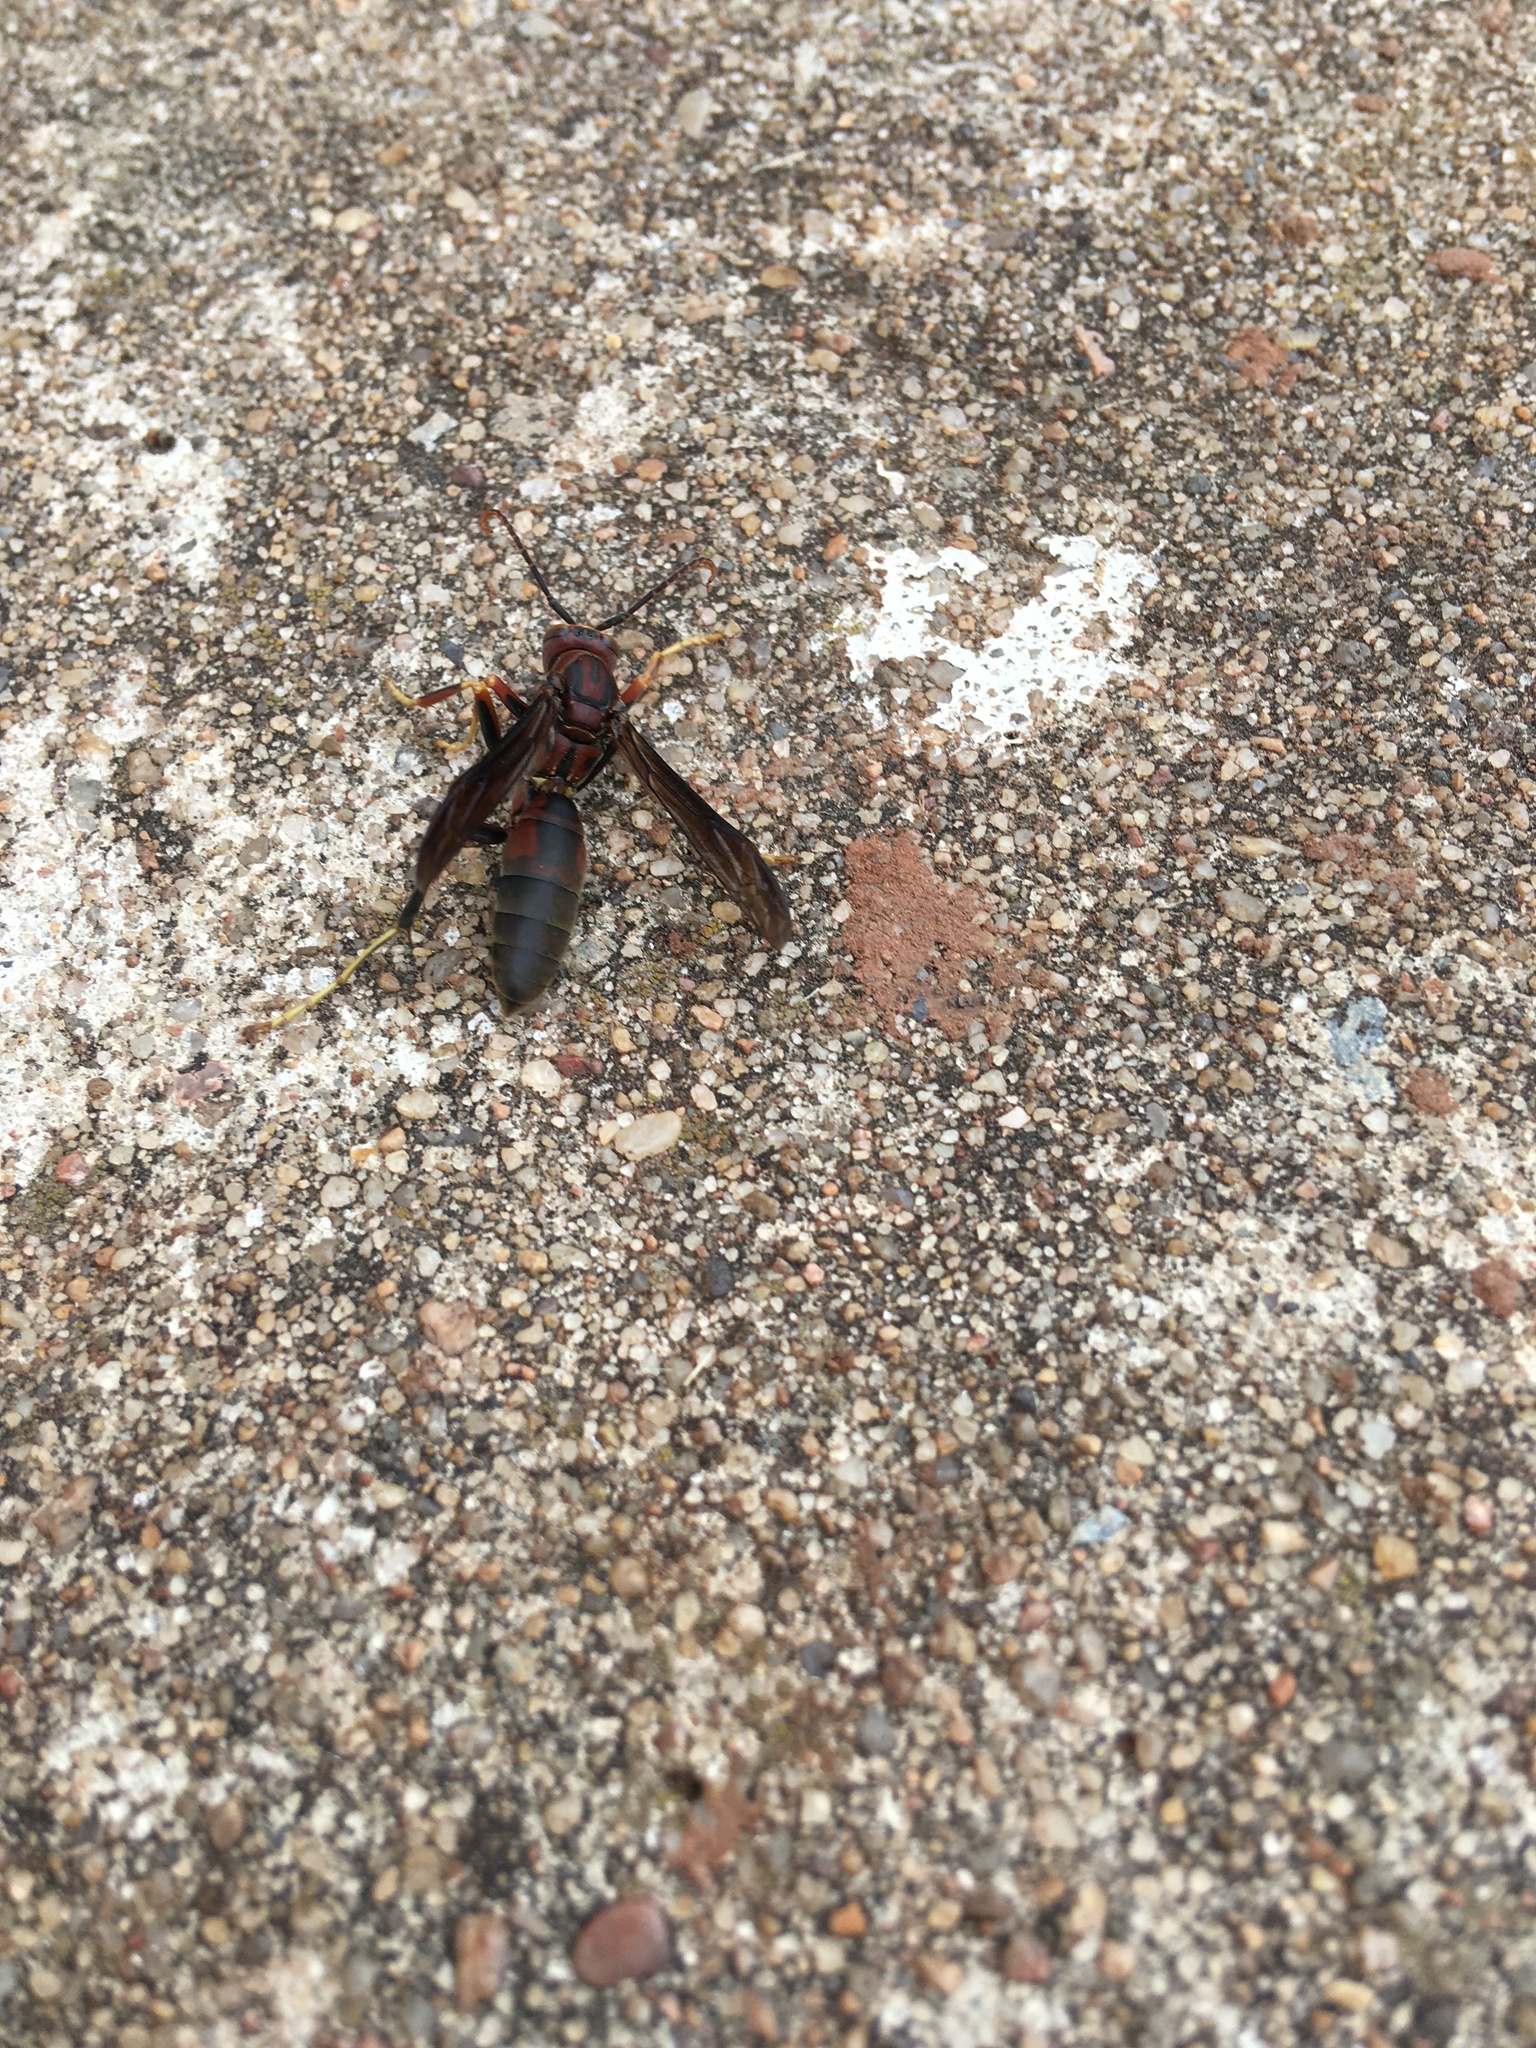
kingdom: Animalia
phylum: Arthropoda
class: Insecta
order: Hymenoptera
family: Eumenidae
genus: Polistes
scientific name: Polistes metricus
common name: Metric paper wasp
